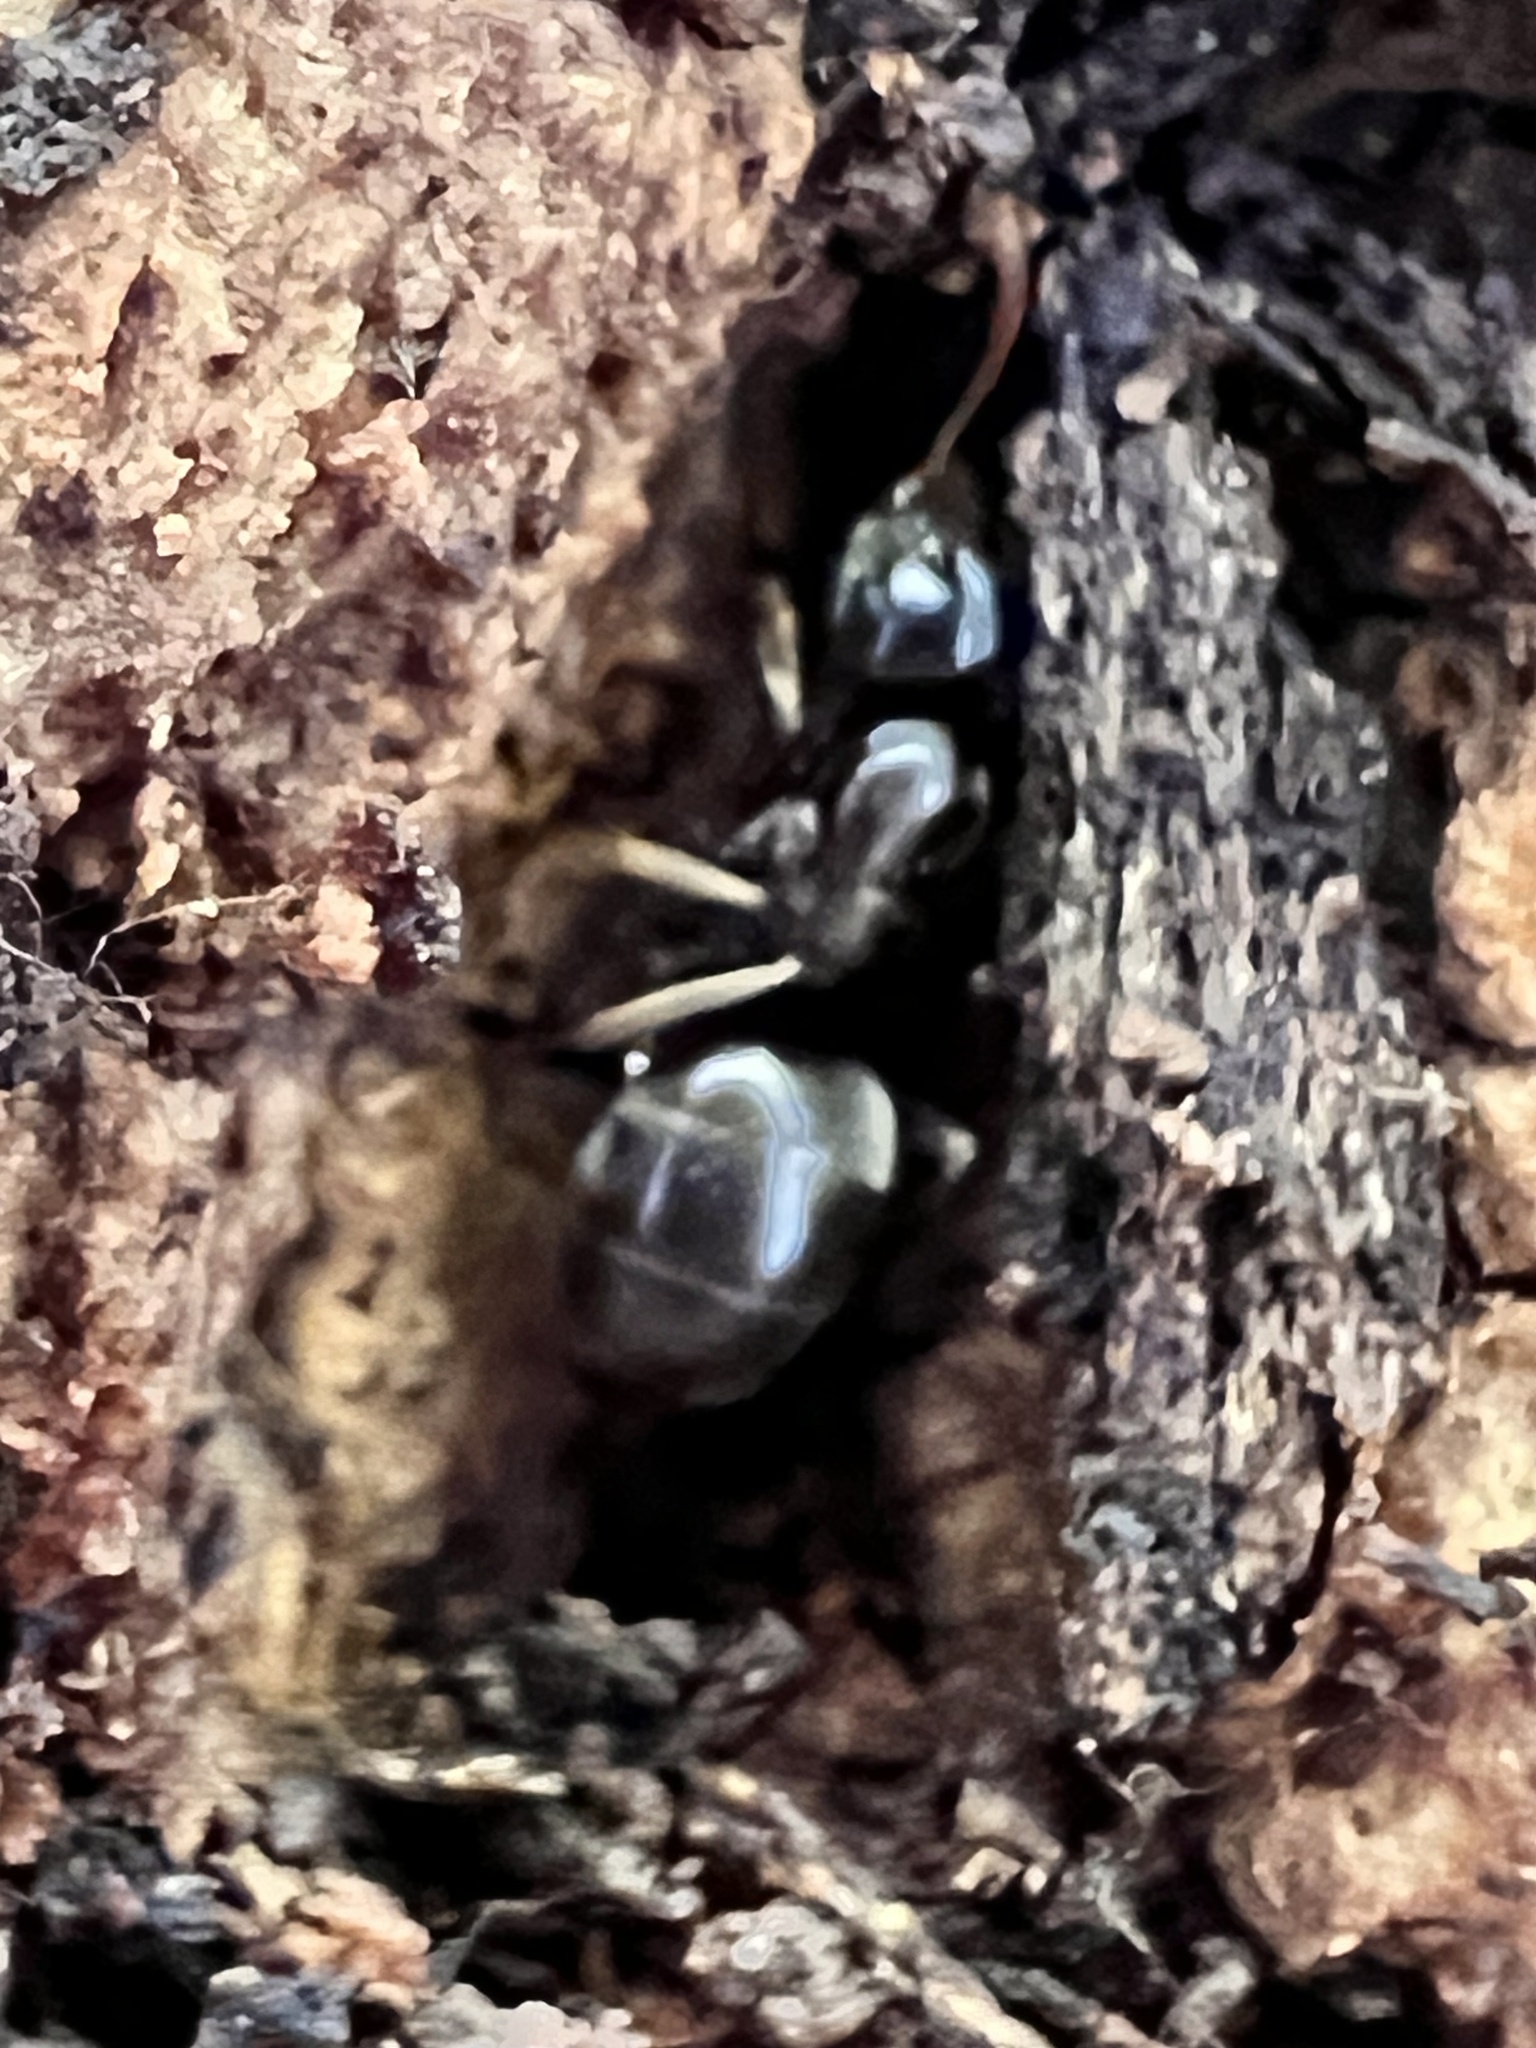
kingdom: Animalia
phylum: Arthropoda
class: Insecta
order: Hymenoptera
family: Formicidae
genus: Lasius
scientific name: Lasius aphidicola
